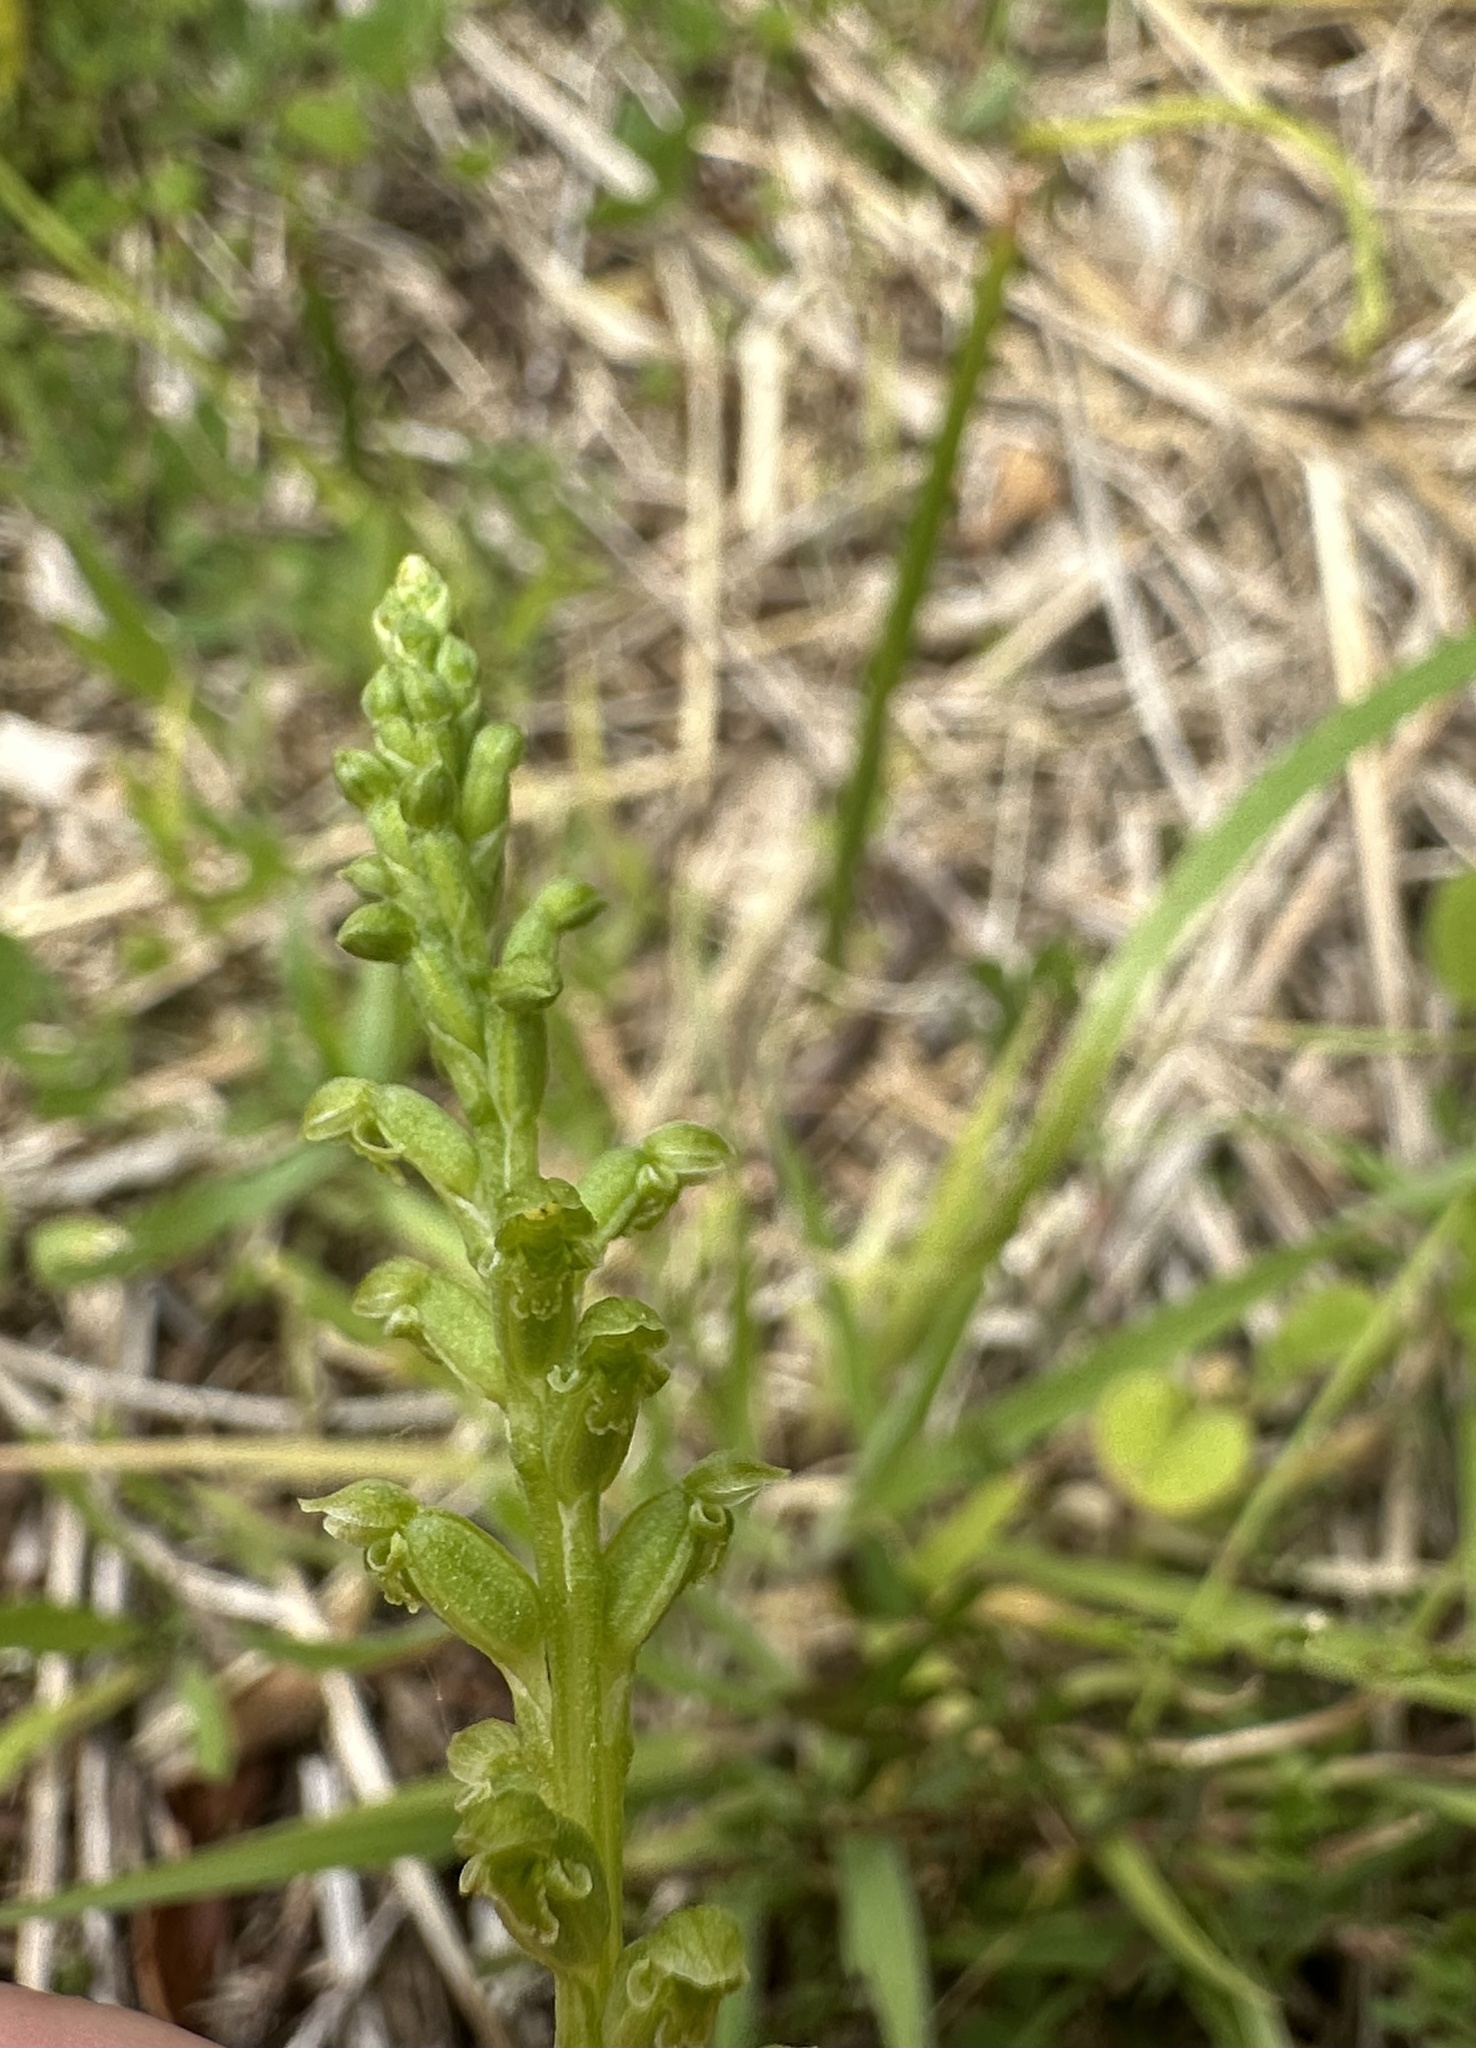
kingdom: Plantae
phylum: Tracheophyta
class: Liliopsida
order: Asparagales
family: Orchidaceae
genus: Microtis
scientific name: Microtis unifolia
